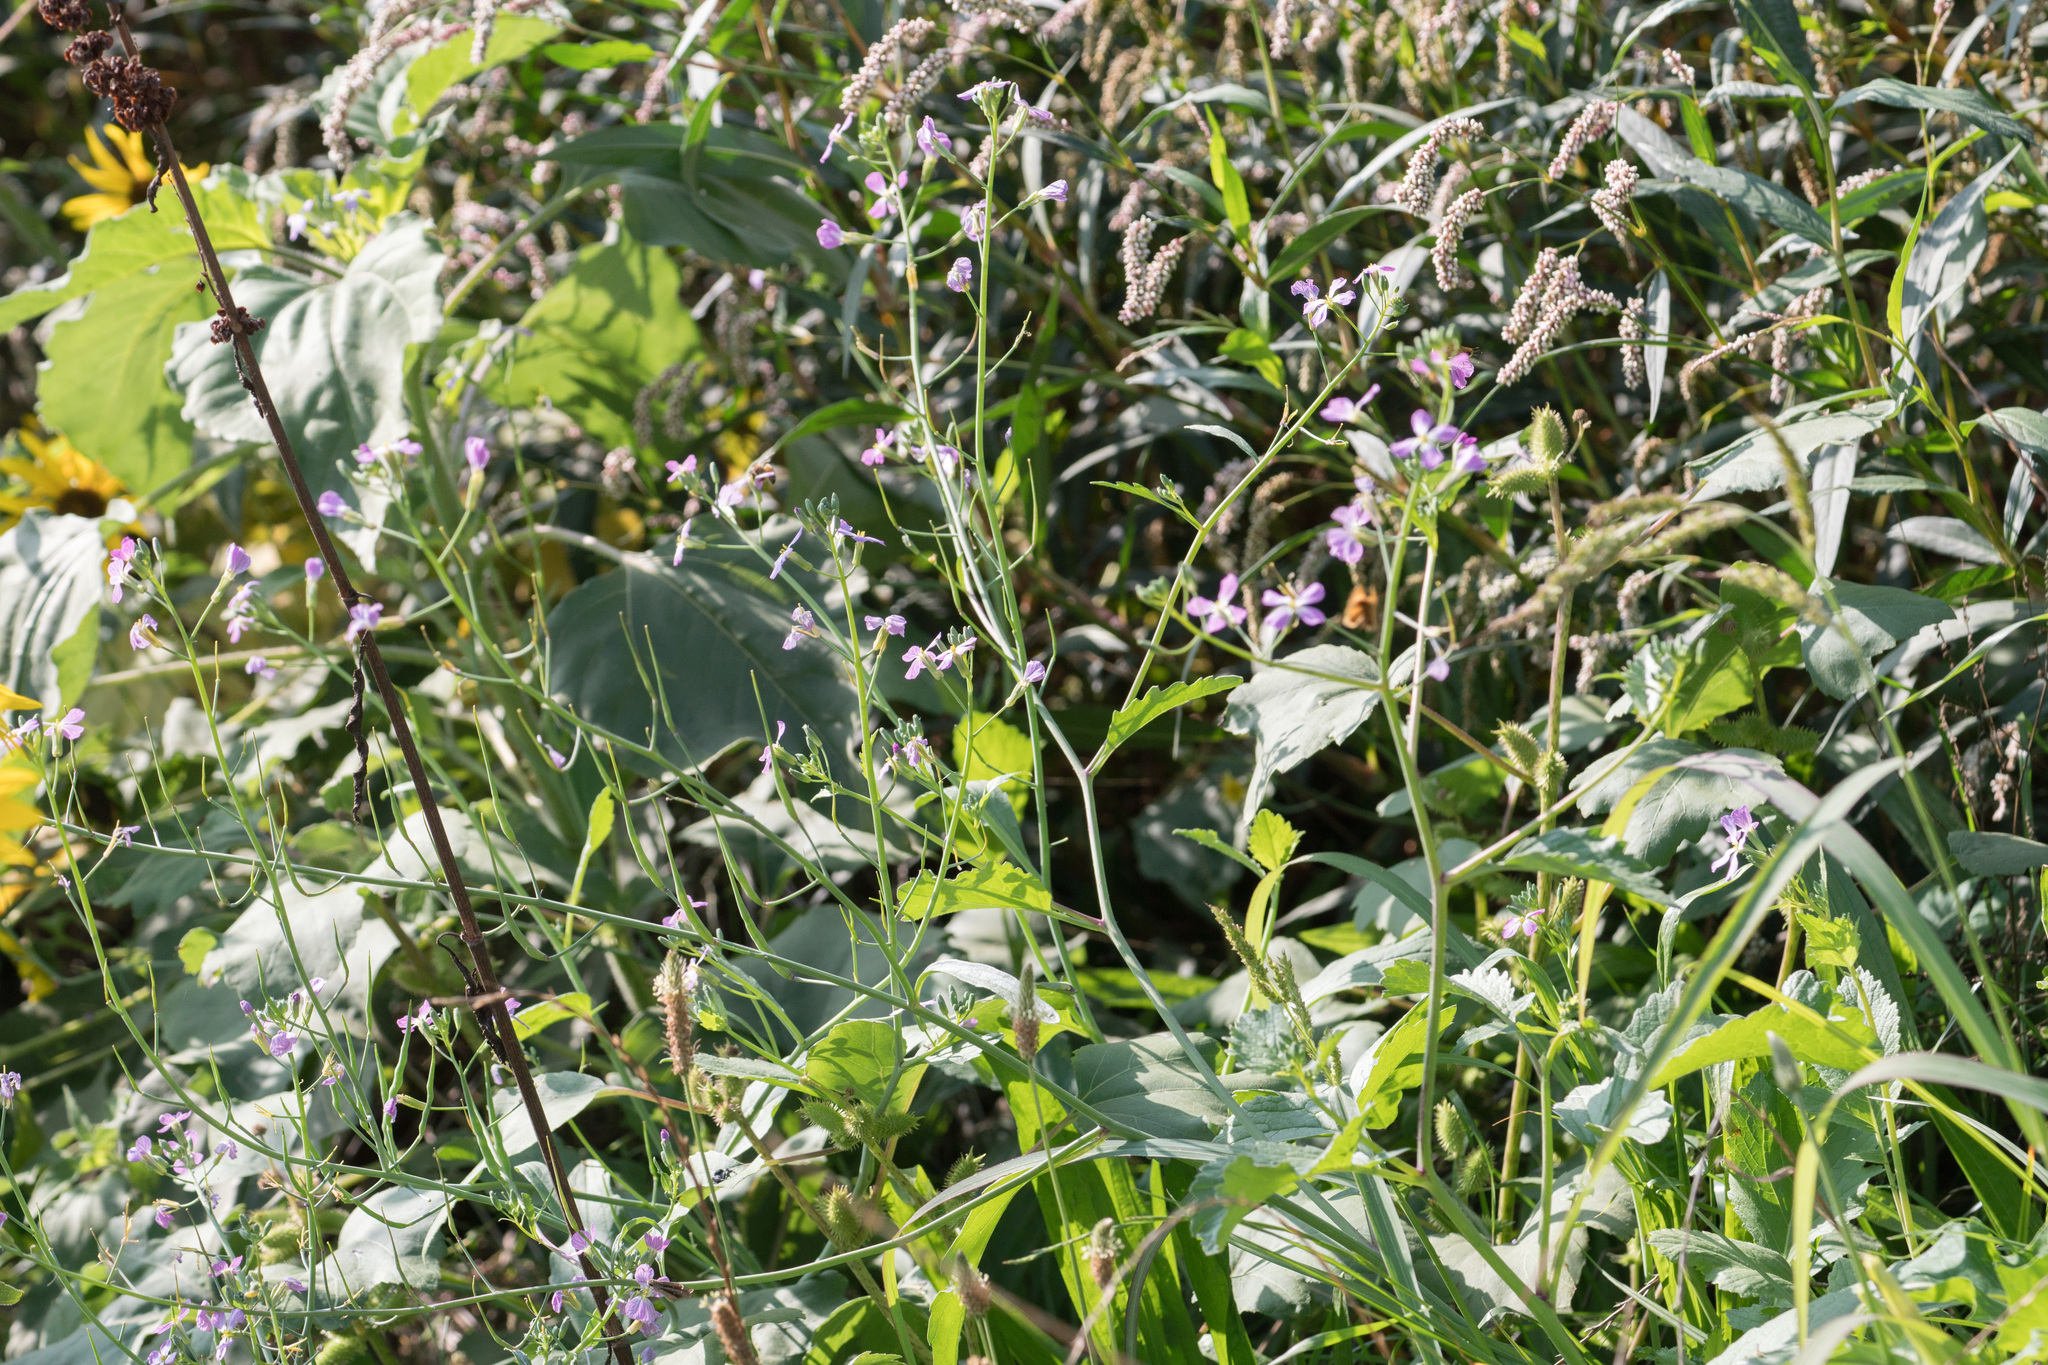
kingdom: Plantae
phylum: Tracheophyta
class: Magnoliopsida
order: Brassicales
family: Brassicaceae
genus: Raphanus
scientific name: Raphanus sativus
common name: Cultivated radish
